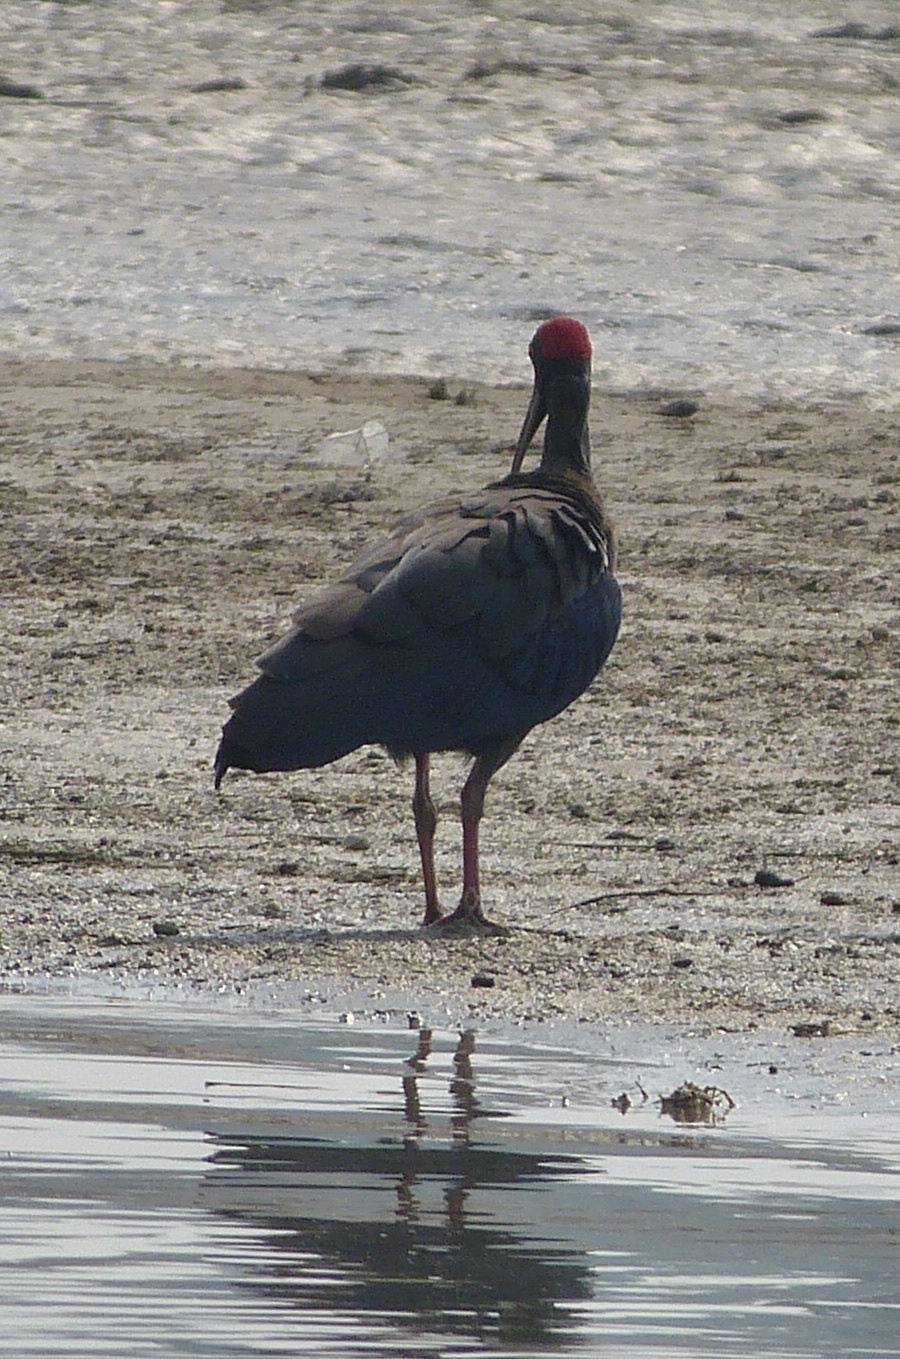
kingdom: Animalia
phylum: Chordata
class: Aves
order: Pelecaniformes
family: Threskiornithidae
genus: Pseudibis
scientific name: Pseudibis papillosa
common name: Red-naped ibis
